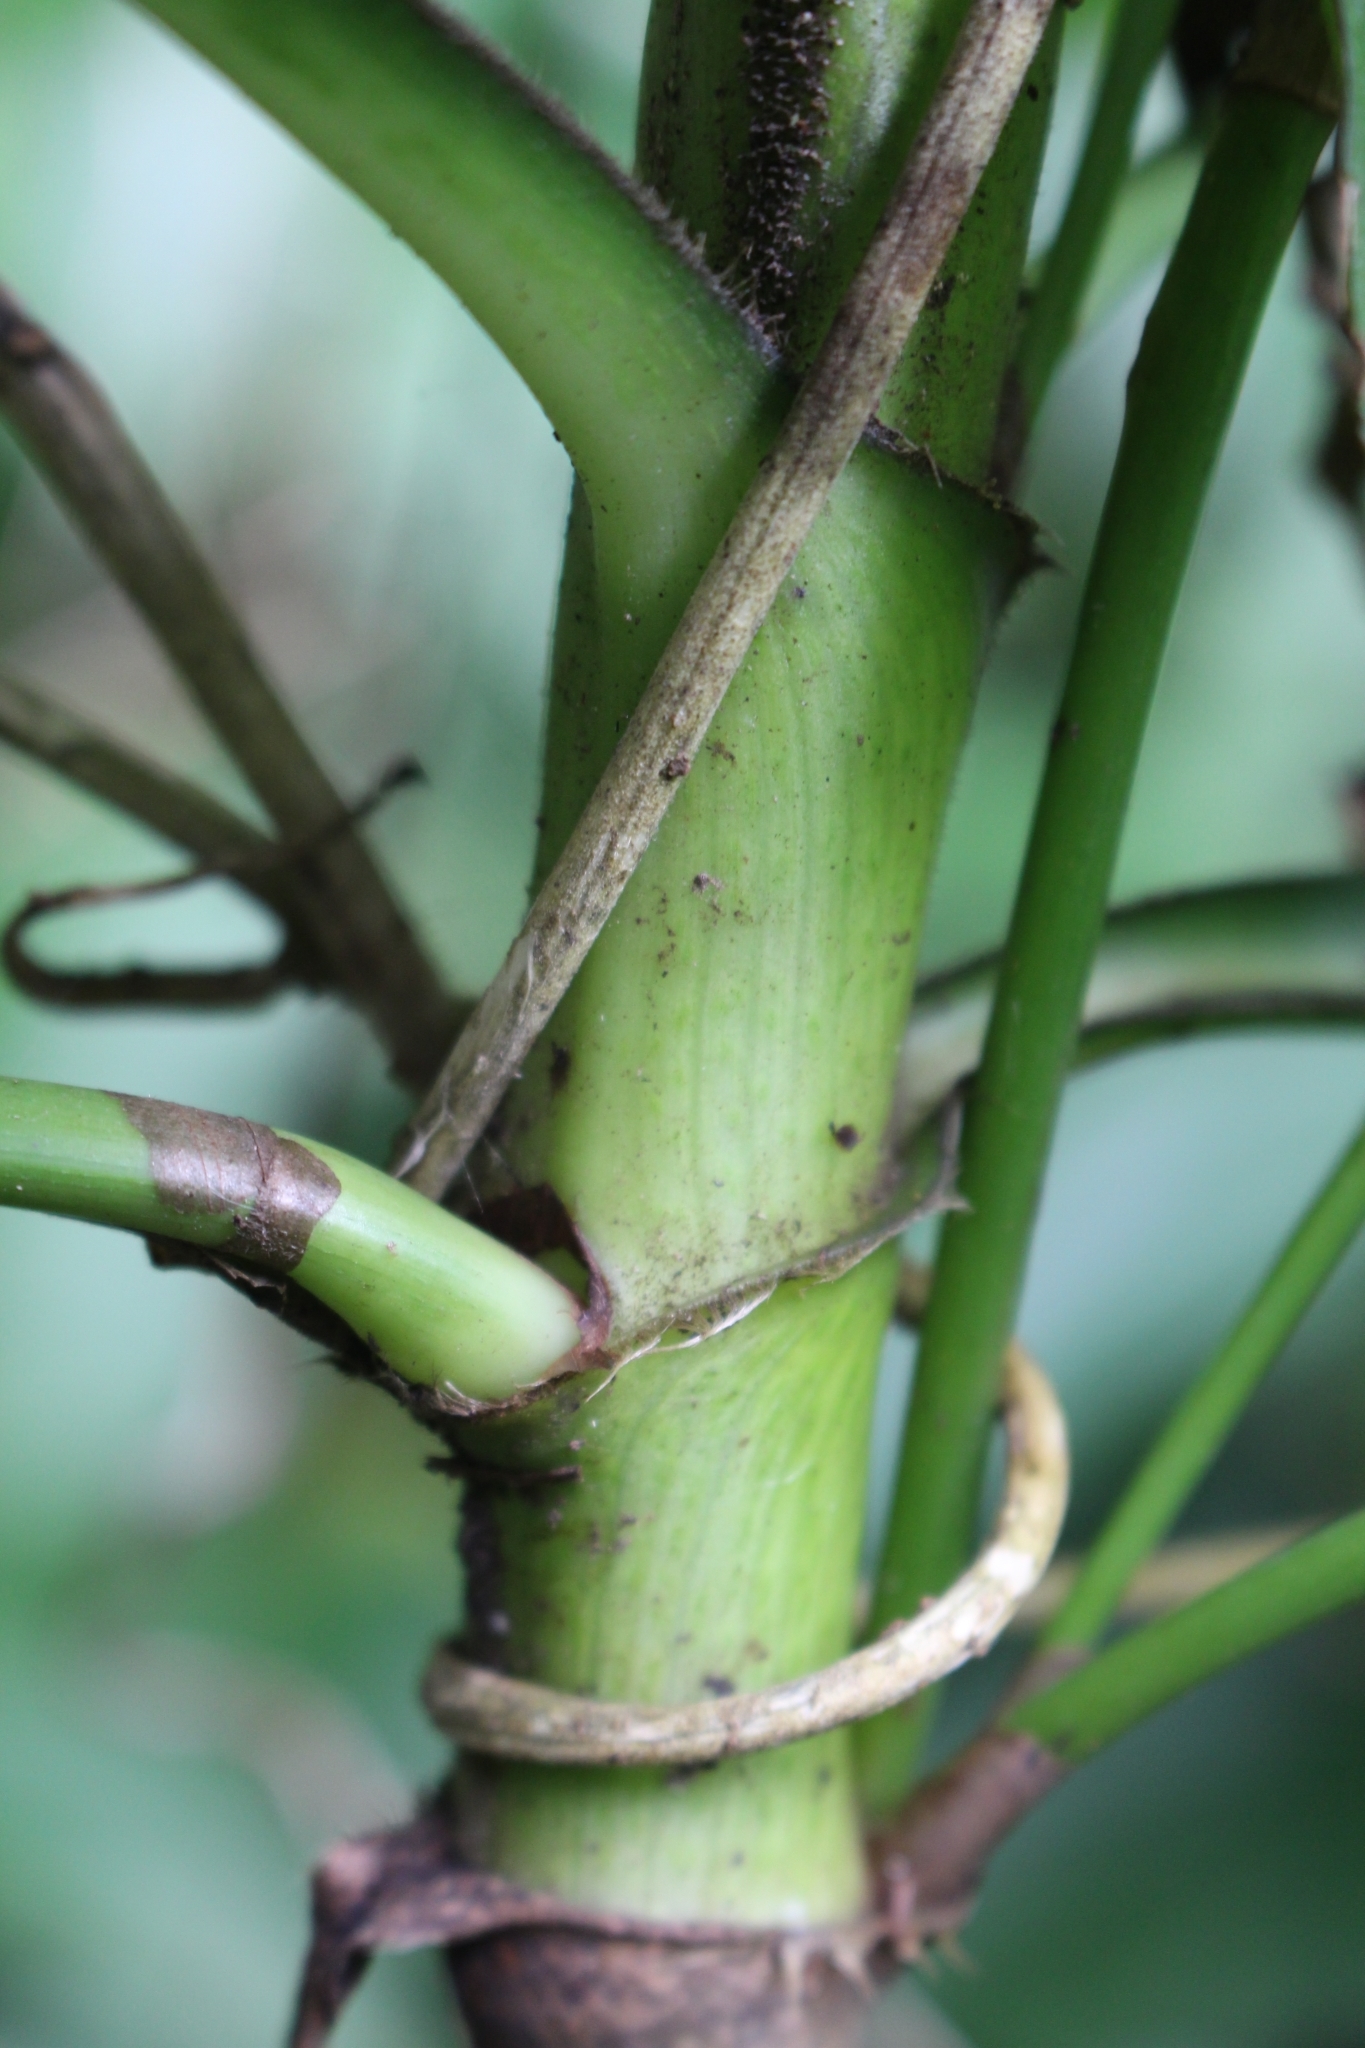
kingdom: Plantae
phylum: Tracheophyta
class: Liliopsida
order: Commelinales
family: Commelinaceae
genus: Tradescantia
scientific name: Tradescantia zanonia
